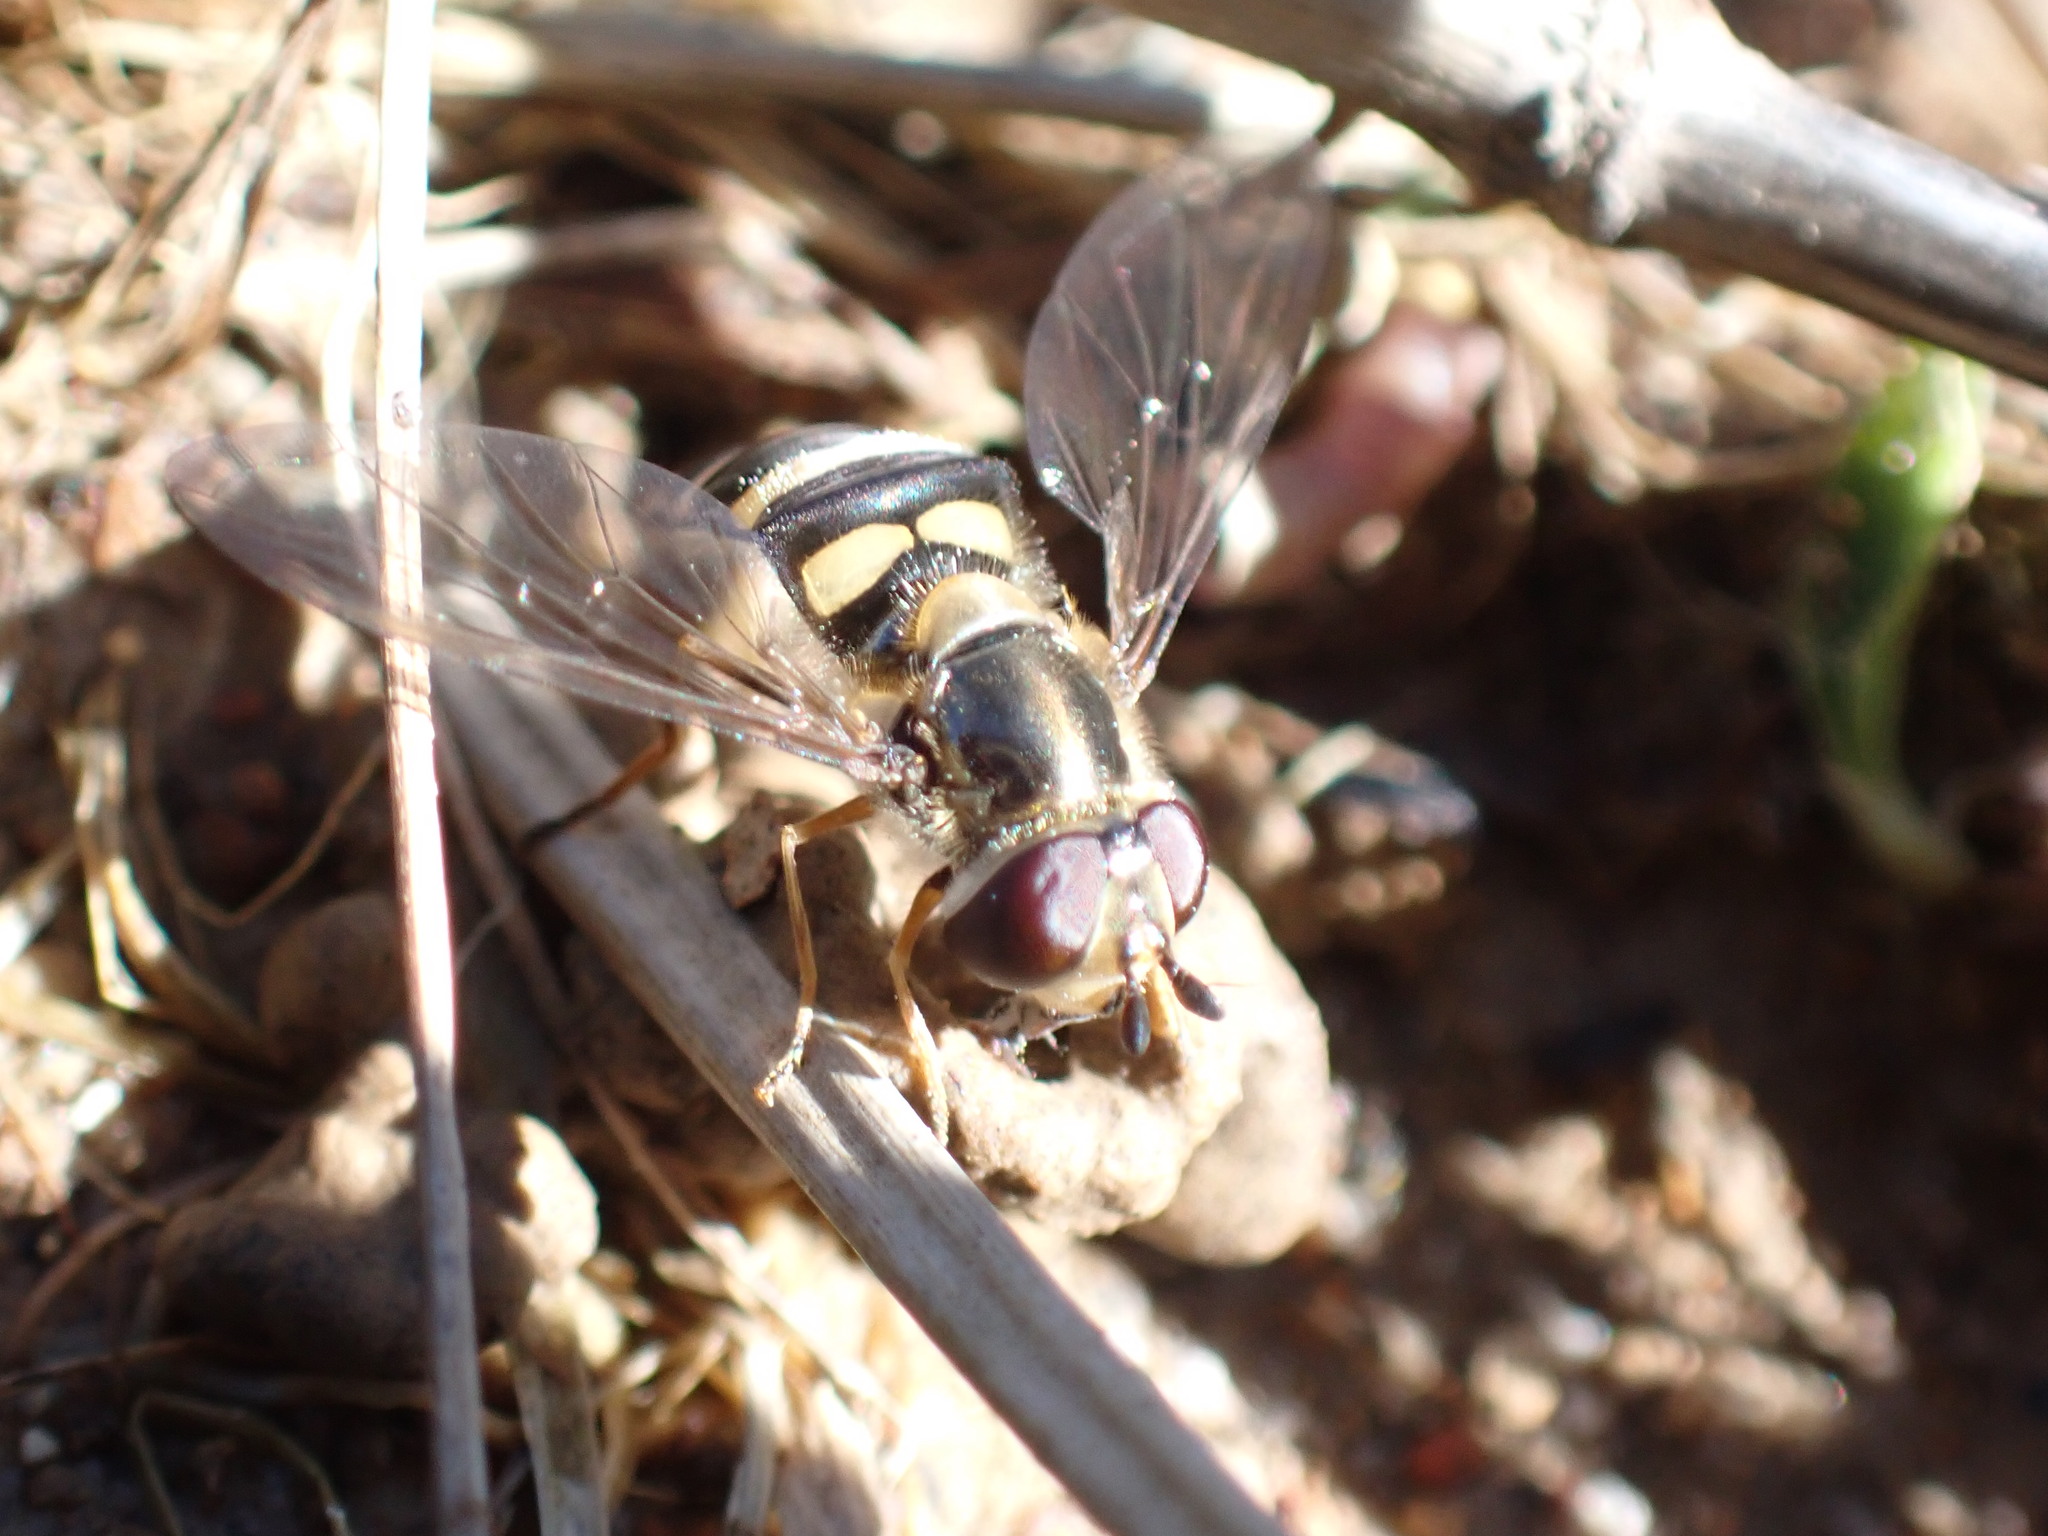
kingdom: Animalia
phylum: Arthropoda
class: Insecta
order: Diptera
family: Syrphidae
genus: Eupeodes
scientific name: Eupeodes
